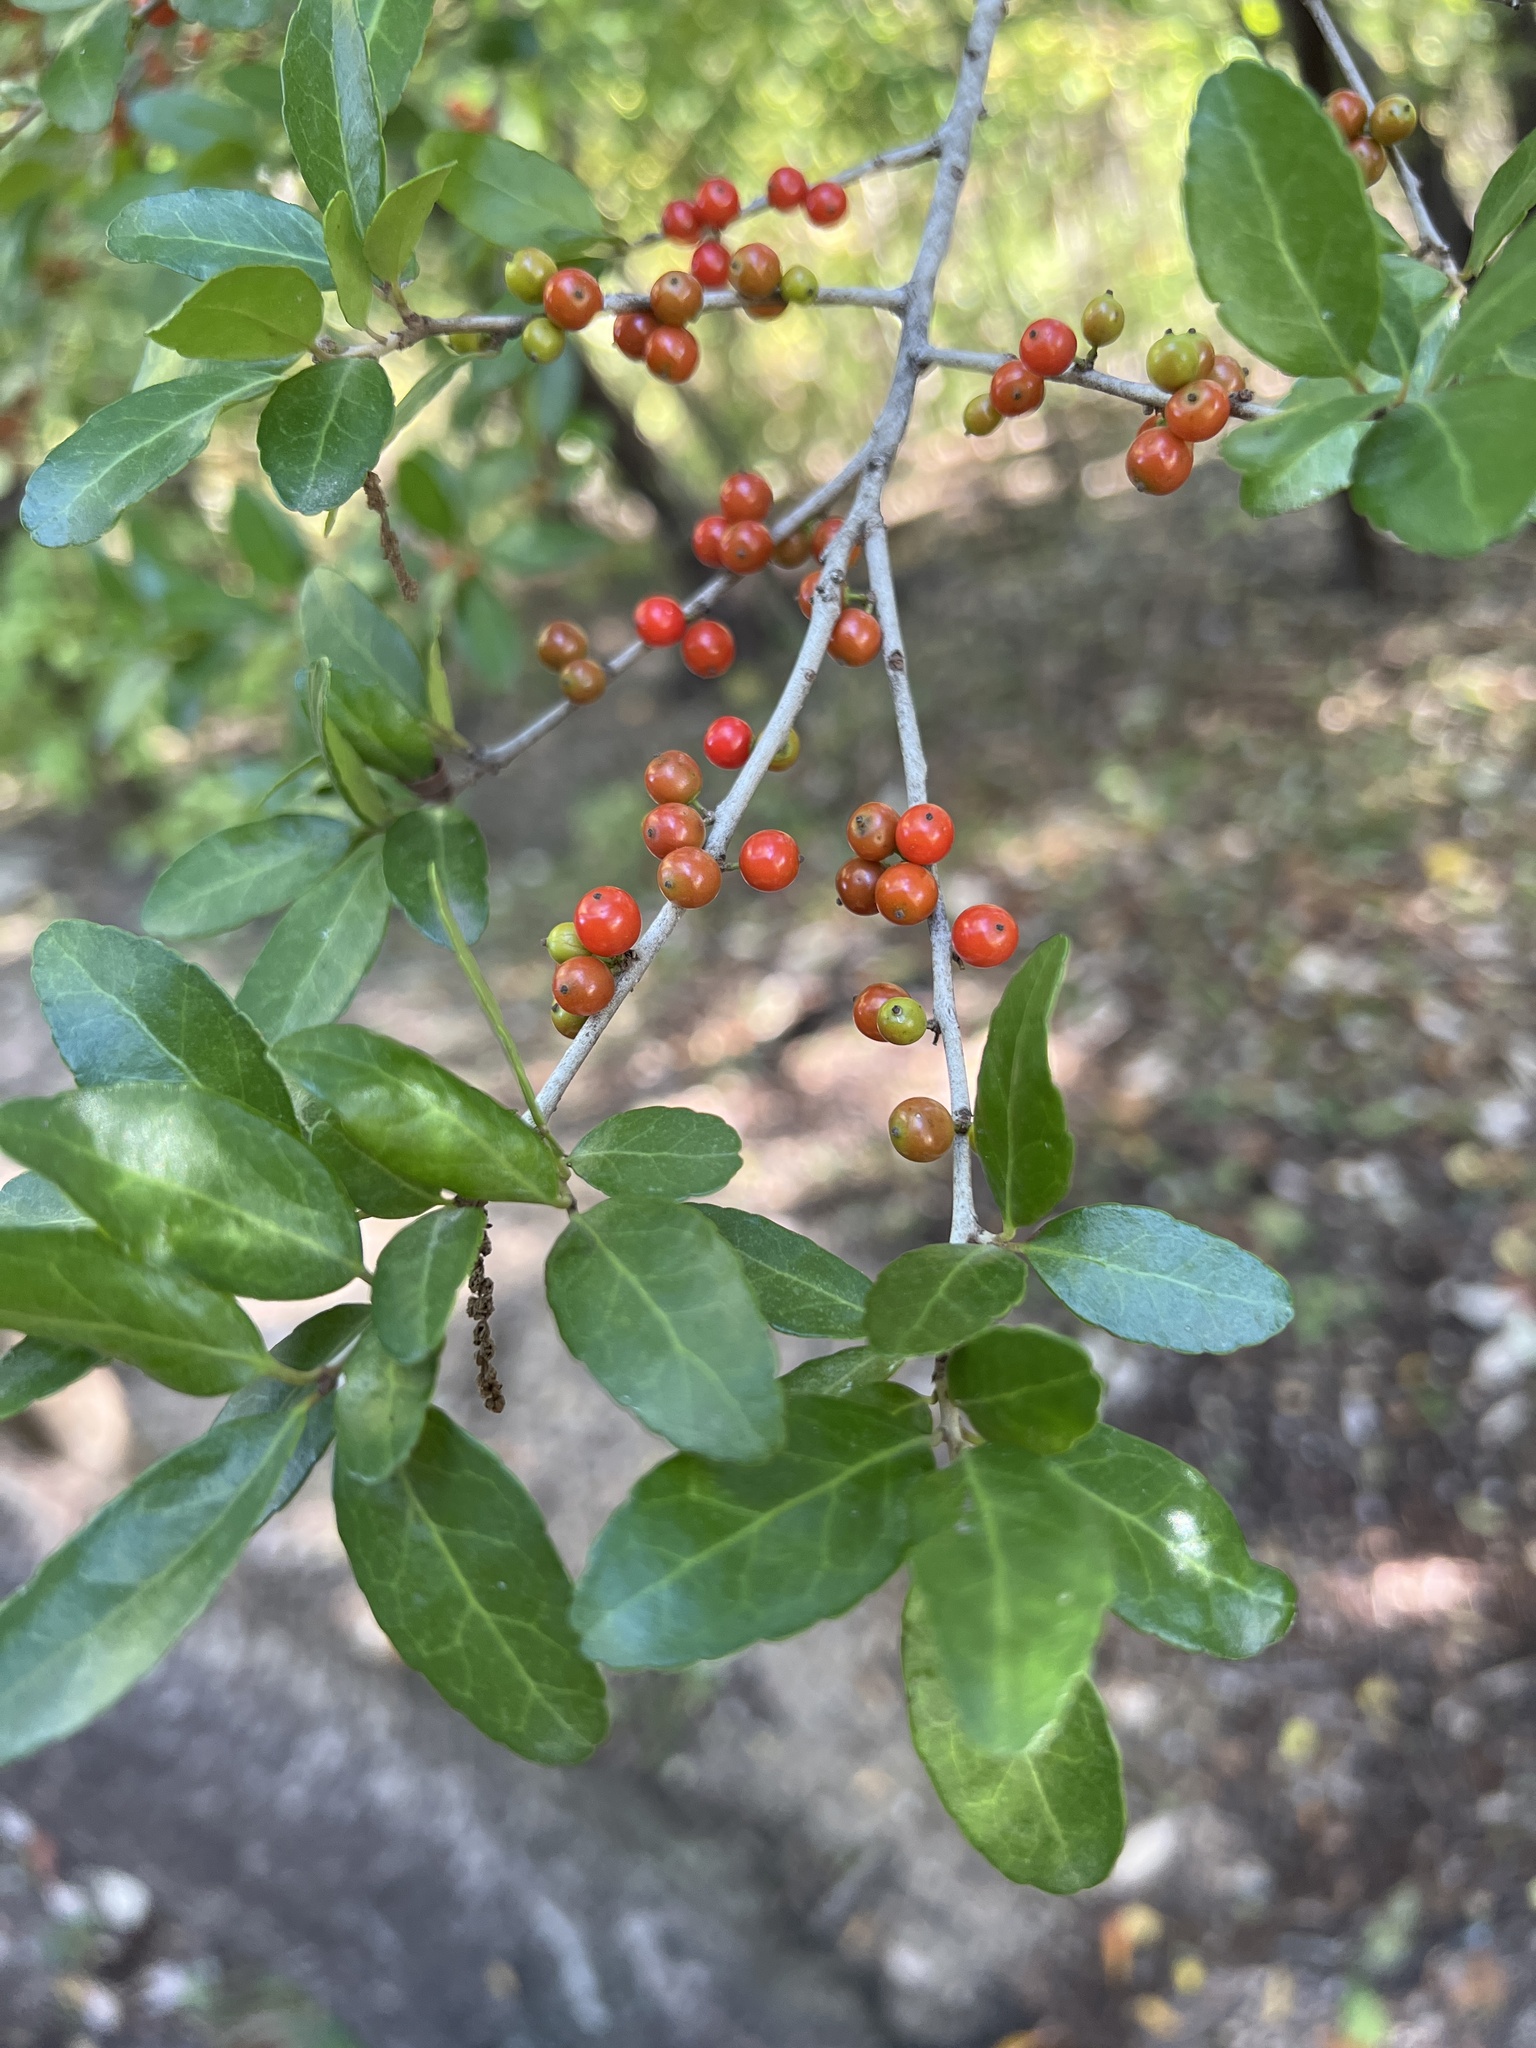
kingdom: Plantae
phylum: Tracheophyta
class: Magnoliopsida
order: Aquifoliales
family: Aquifoliaceae
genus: Ilex
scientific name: Ilex vomitoria
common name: Yaupon holly
